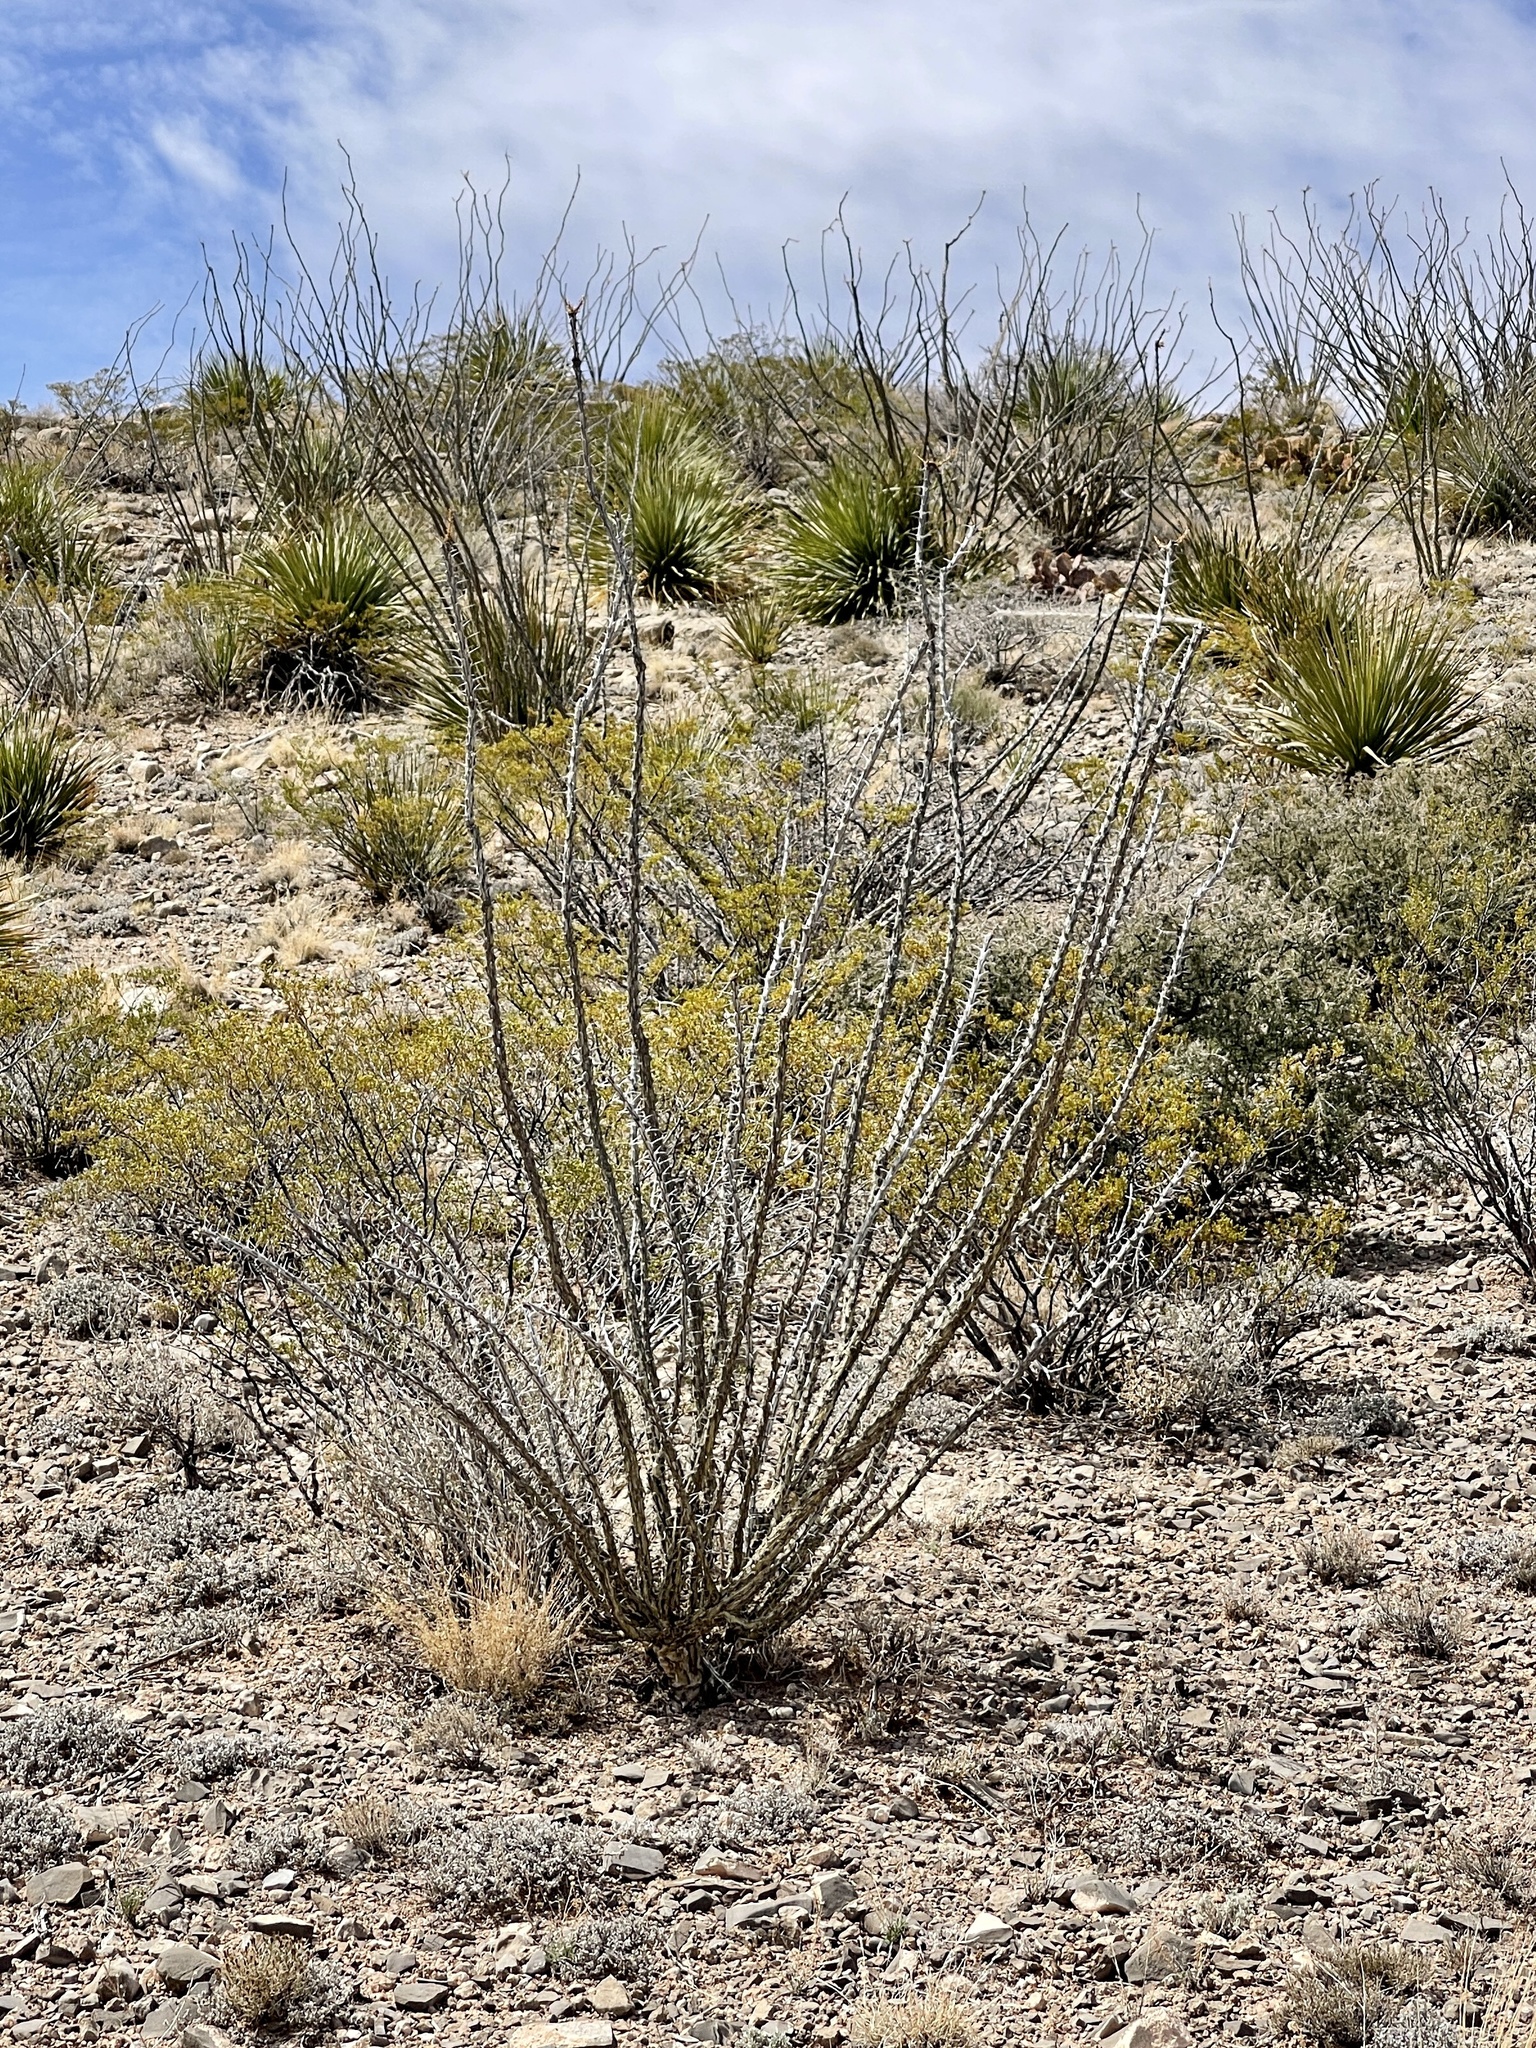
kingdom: Plantae
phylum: Tracheophyta
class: Magnoliopsida
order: Zygophyllales
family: Zygophyllaceae
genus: Larrea
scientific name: Larrea tridentata
